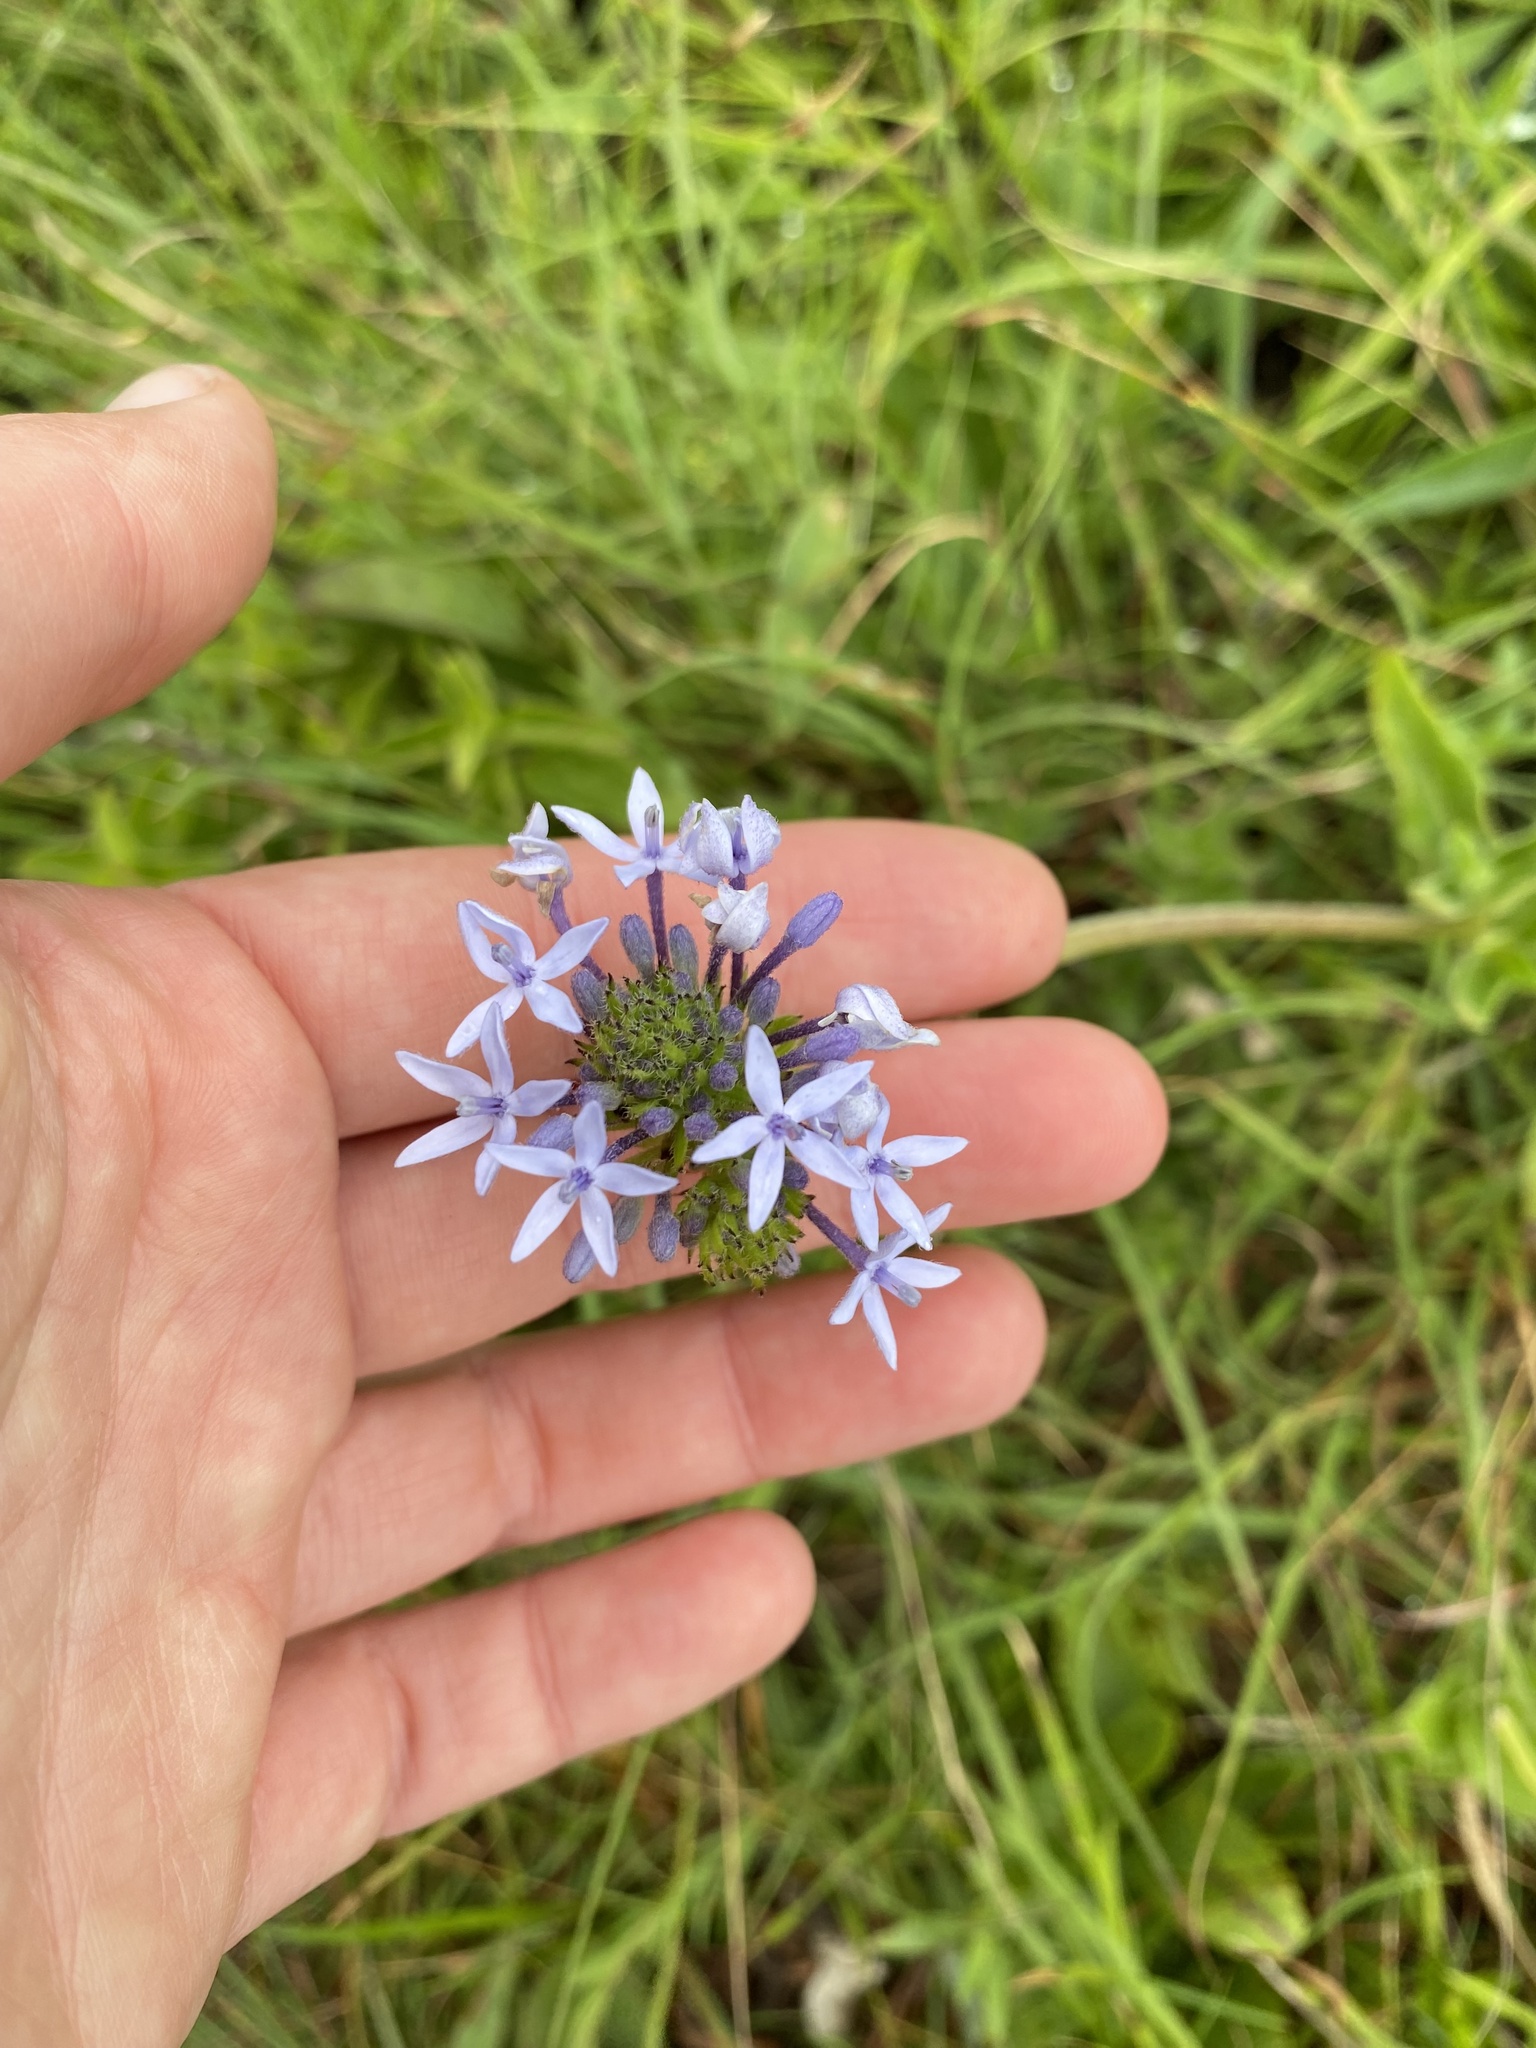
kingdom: Plantae
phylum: Tracheophyta
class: Magnoliopsida
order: Gentianales
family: Rubiaceae
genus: Pentanisia
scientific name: Pentanisia angustifolia
